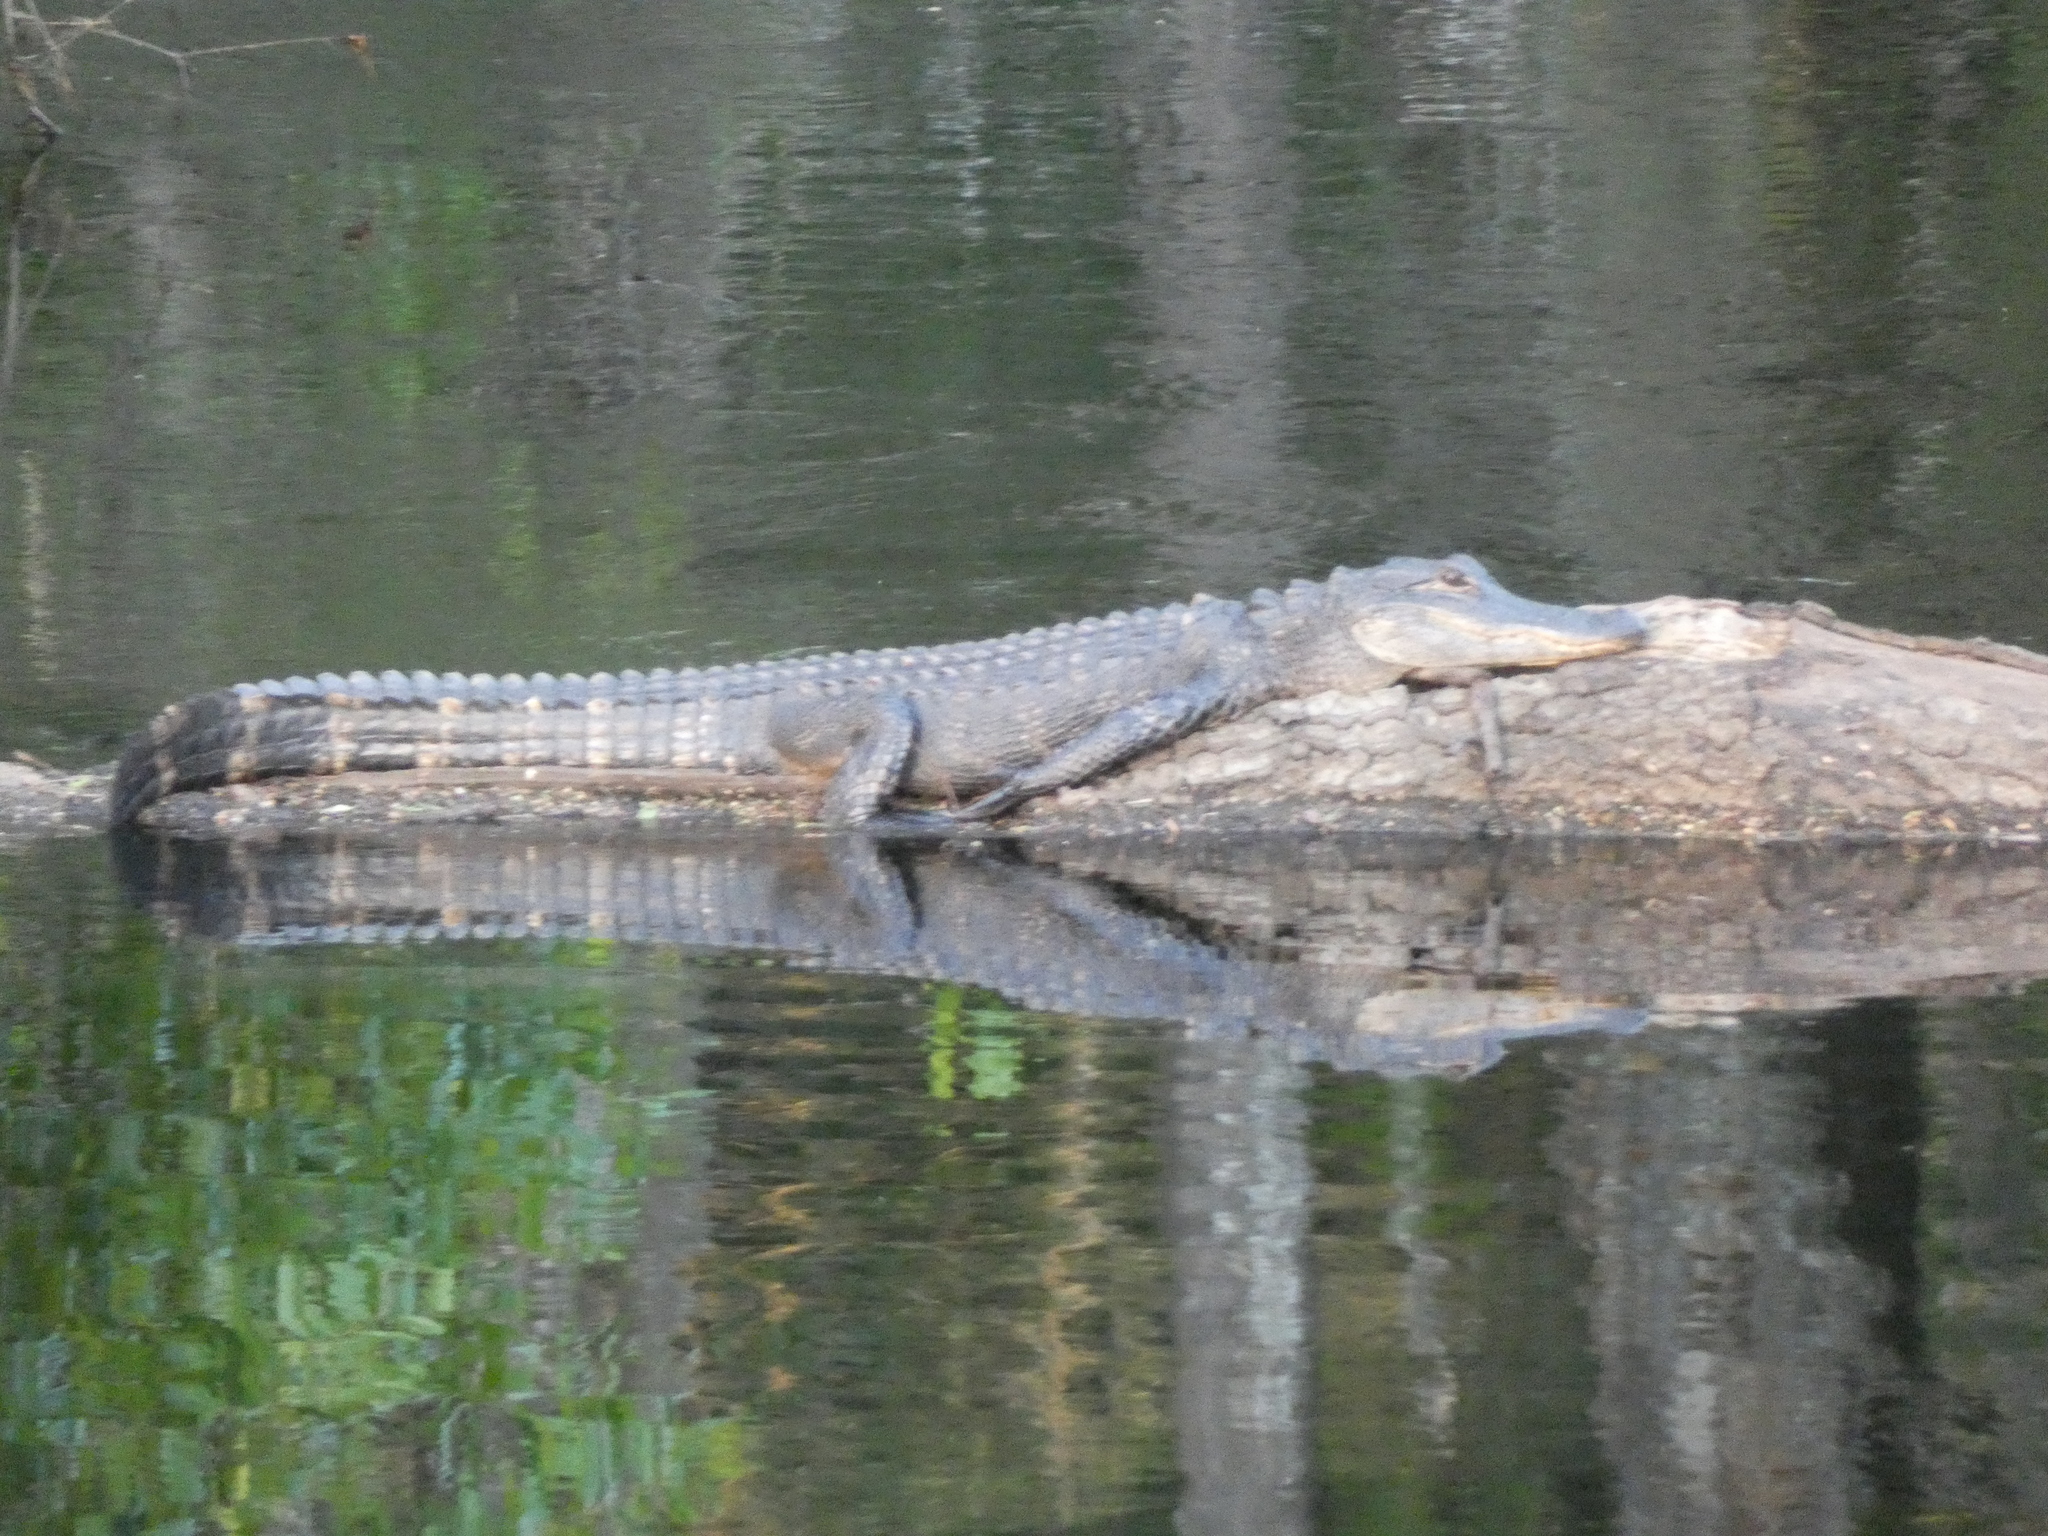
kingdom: Animalia
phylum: Chordata
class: Crocodylia
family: Alligatoridae
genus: Alligator
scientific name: Alligator mississippiensis
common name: American alligator
